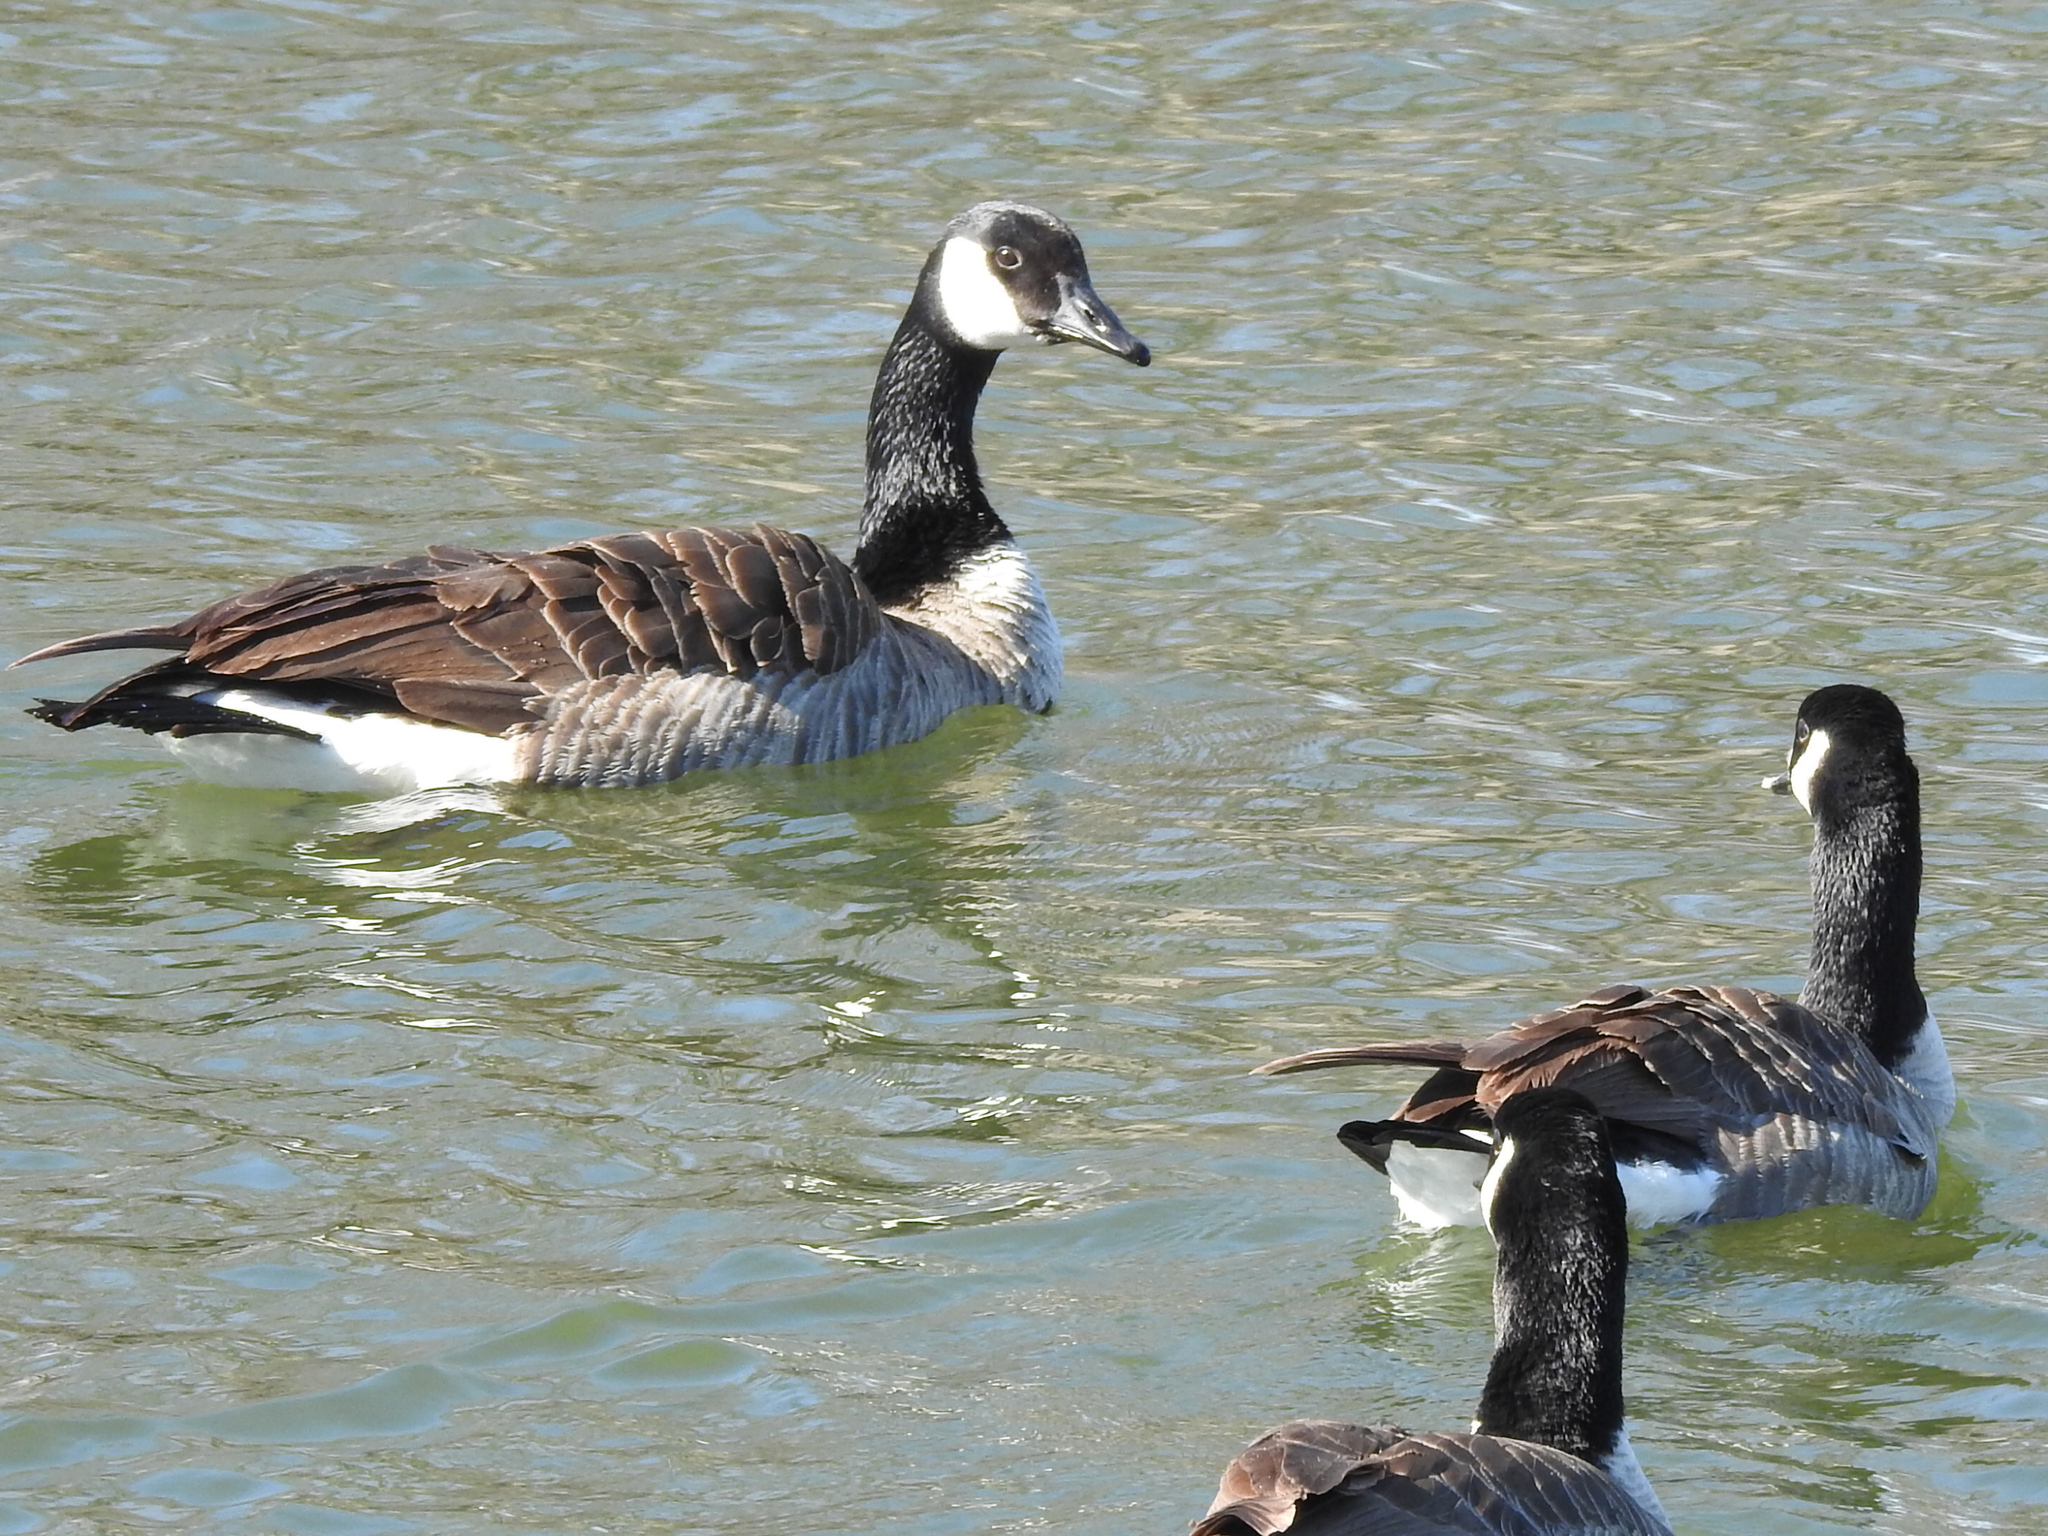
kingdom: Animalia
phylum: Chordata
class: Aves
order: Anseriformes
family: Anatidae
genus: Branta
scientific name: Branta canadensis
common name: Canada goose
